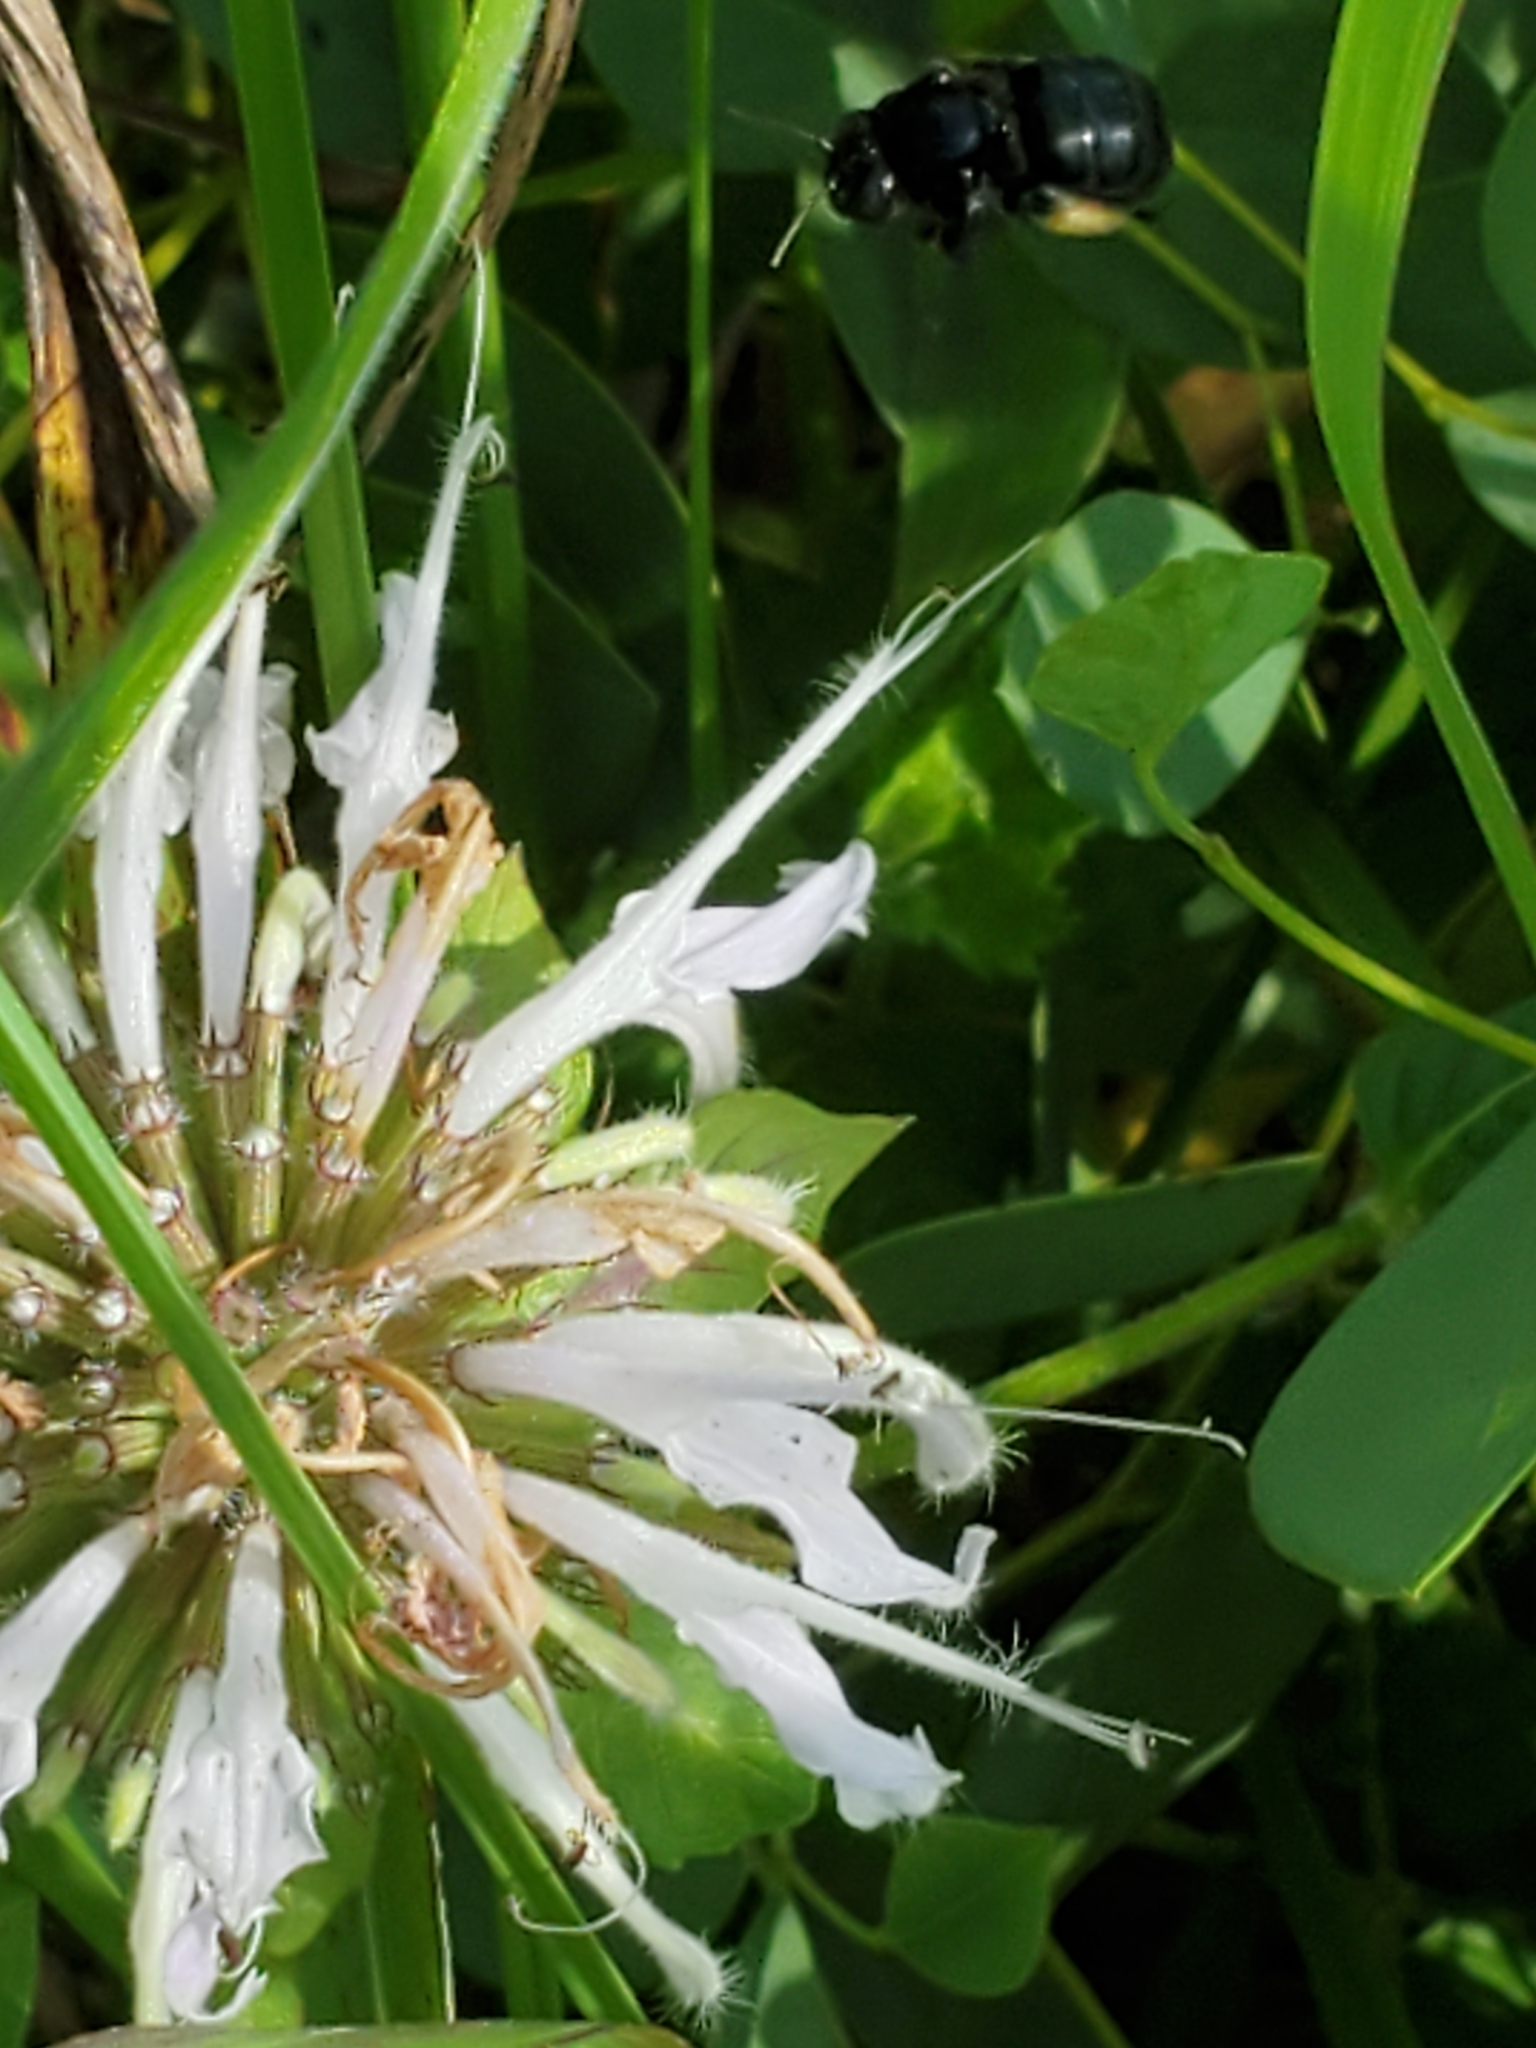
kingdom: Animalia
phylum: Arthropoda
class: Insecta
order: Hymenoptera
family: Apidae
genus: Melissodes
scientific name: Melissodes bimaculatus
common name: Two-spotted long-horned bee
